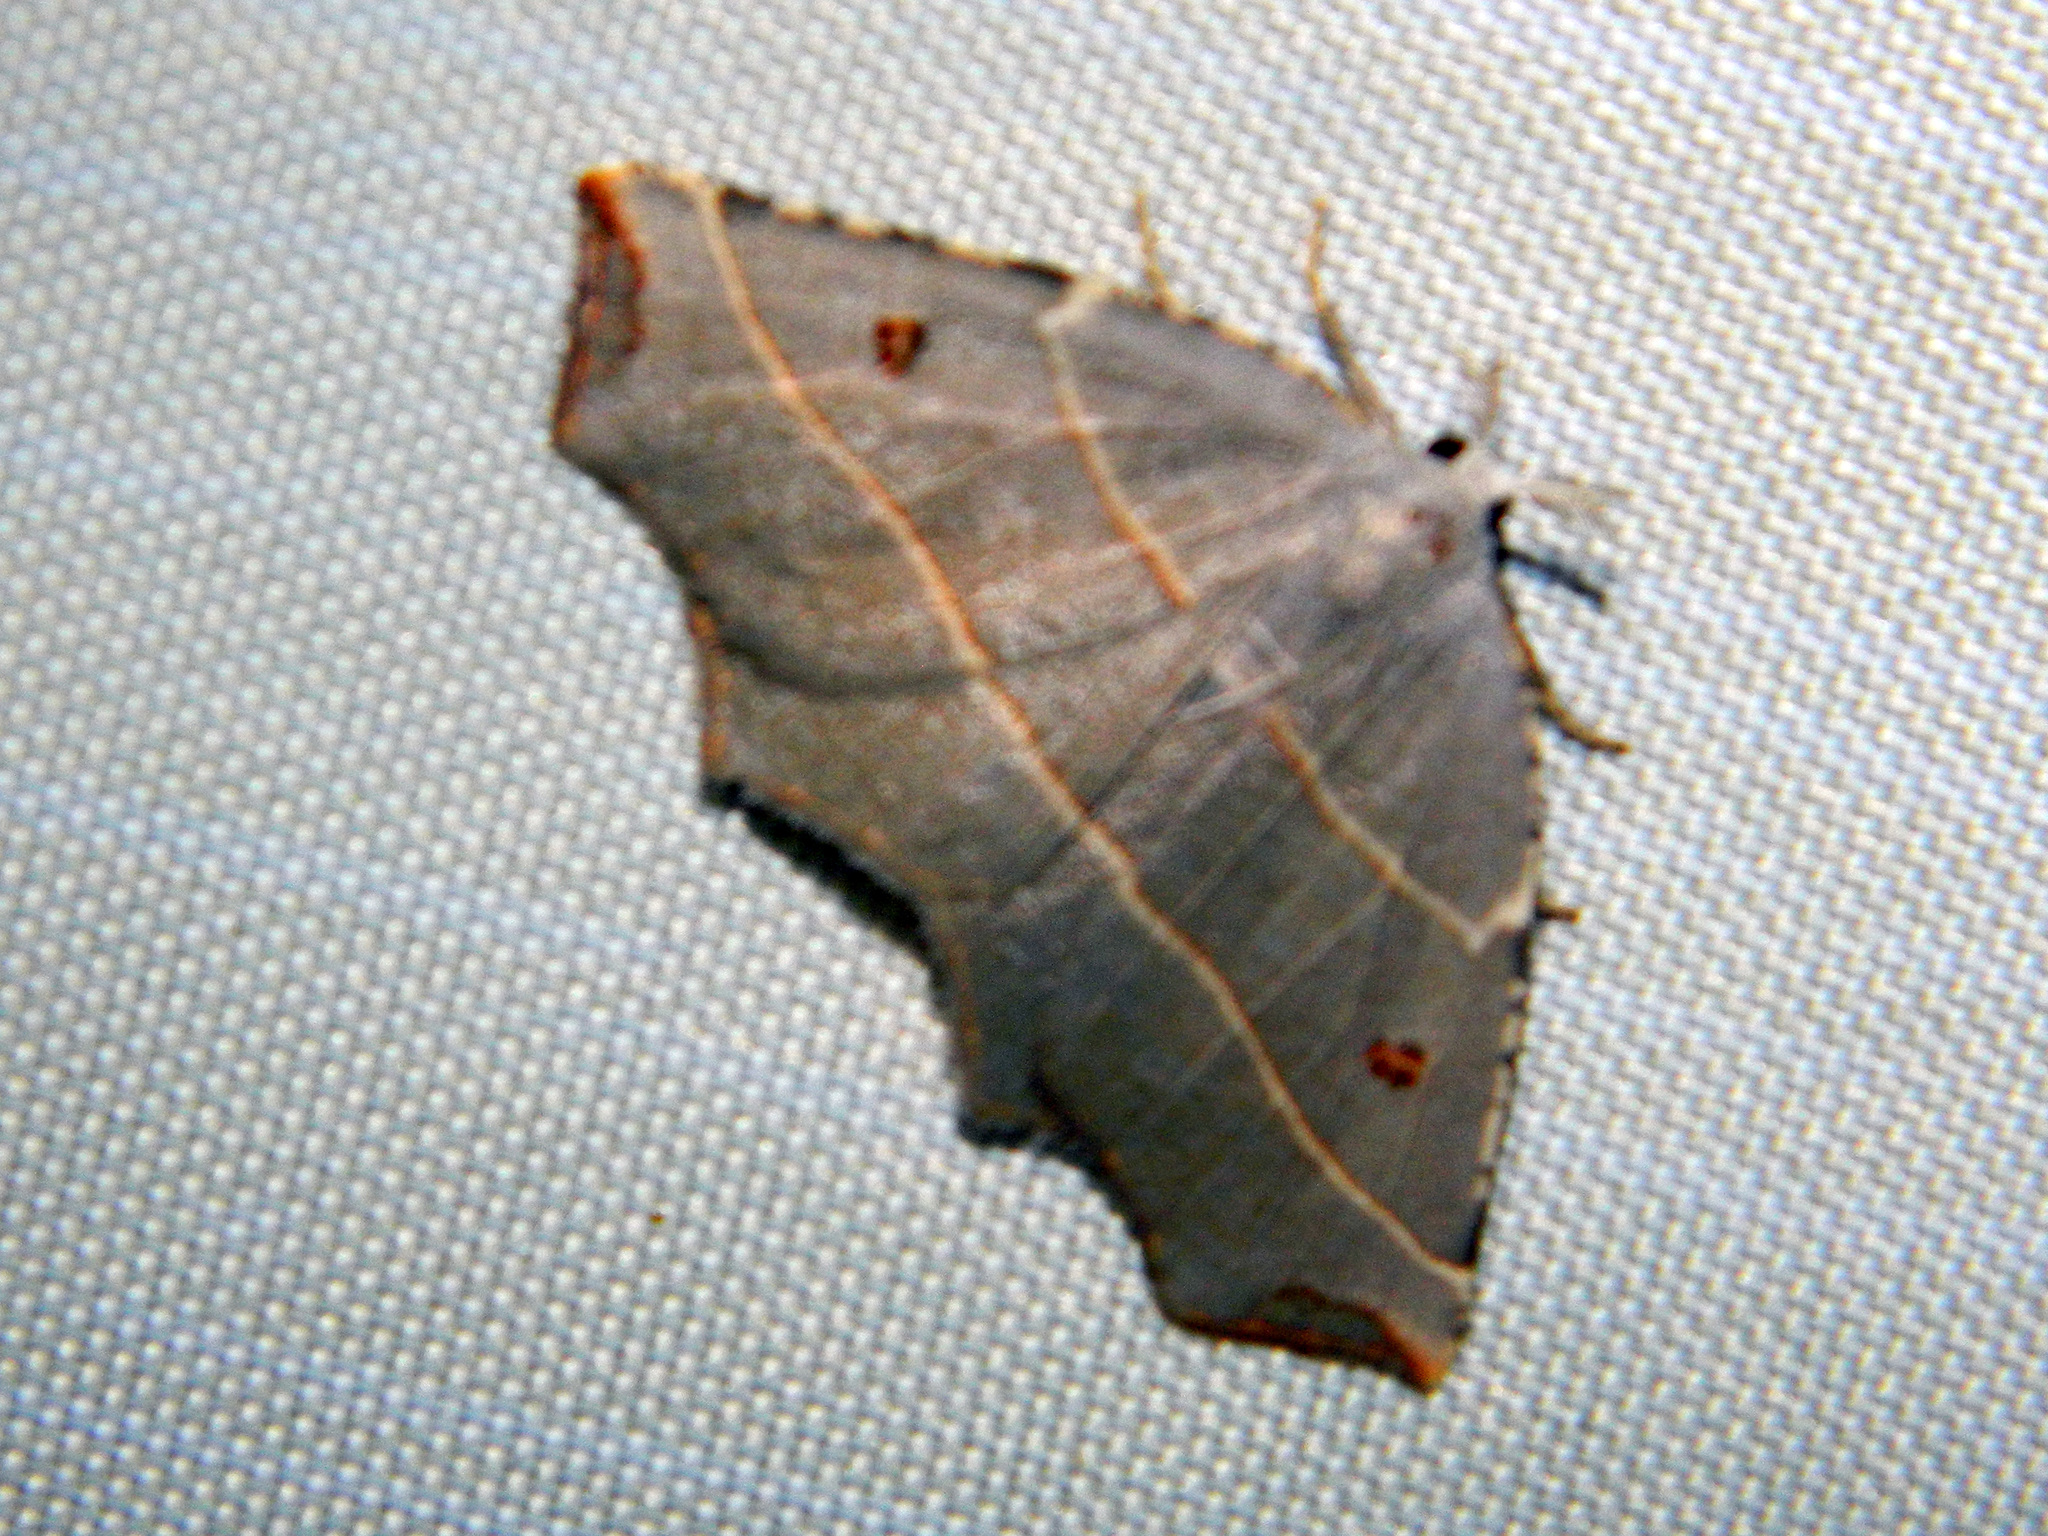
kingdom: Animalia
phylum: Arthropoda
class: Insecta
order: Lepidoptera
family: Geometridae
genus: Metanema
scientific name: Metanema inatomaria
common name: Pale metanema
